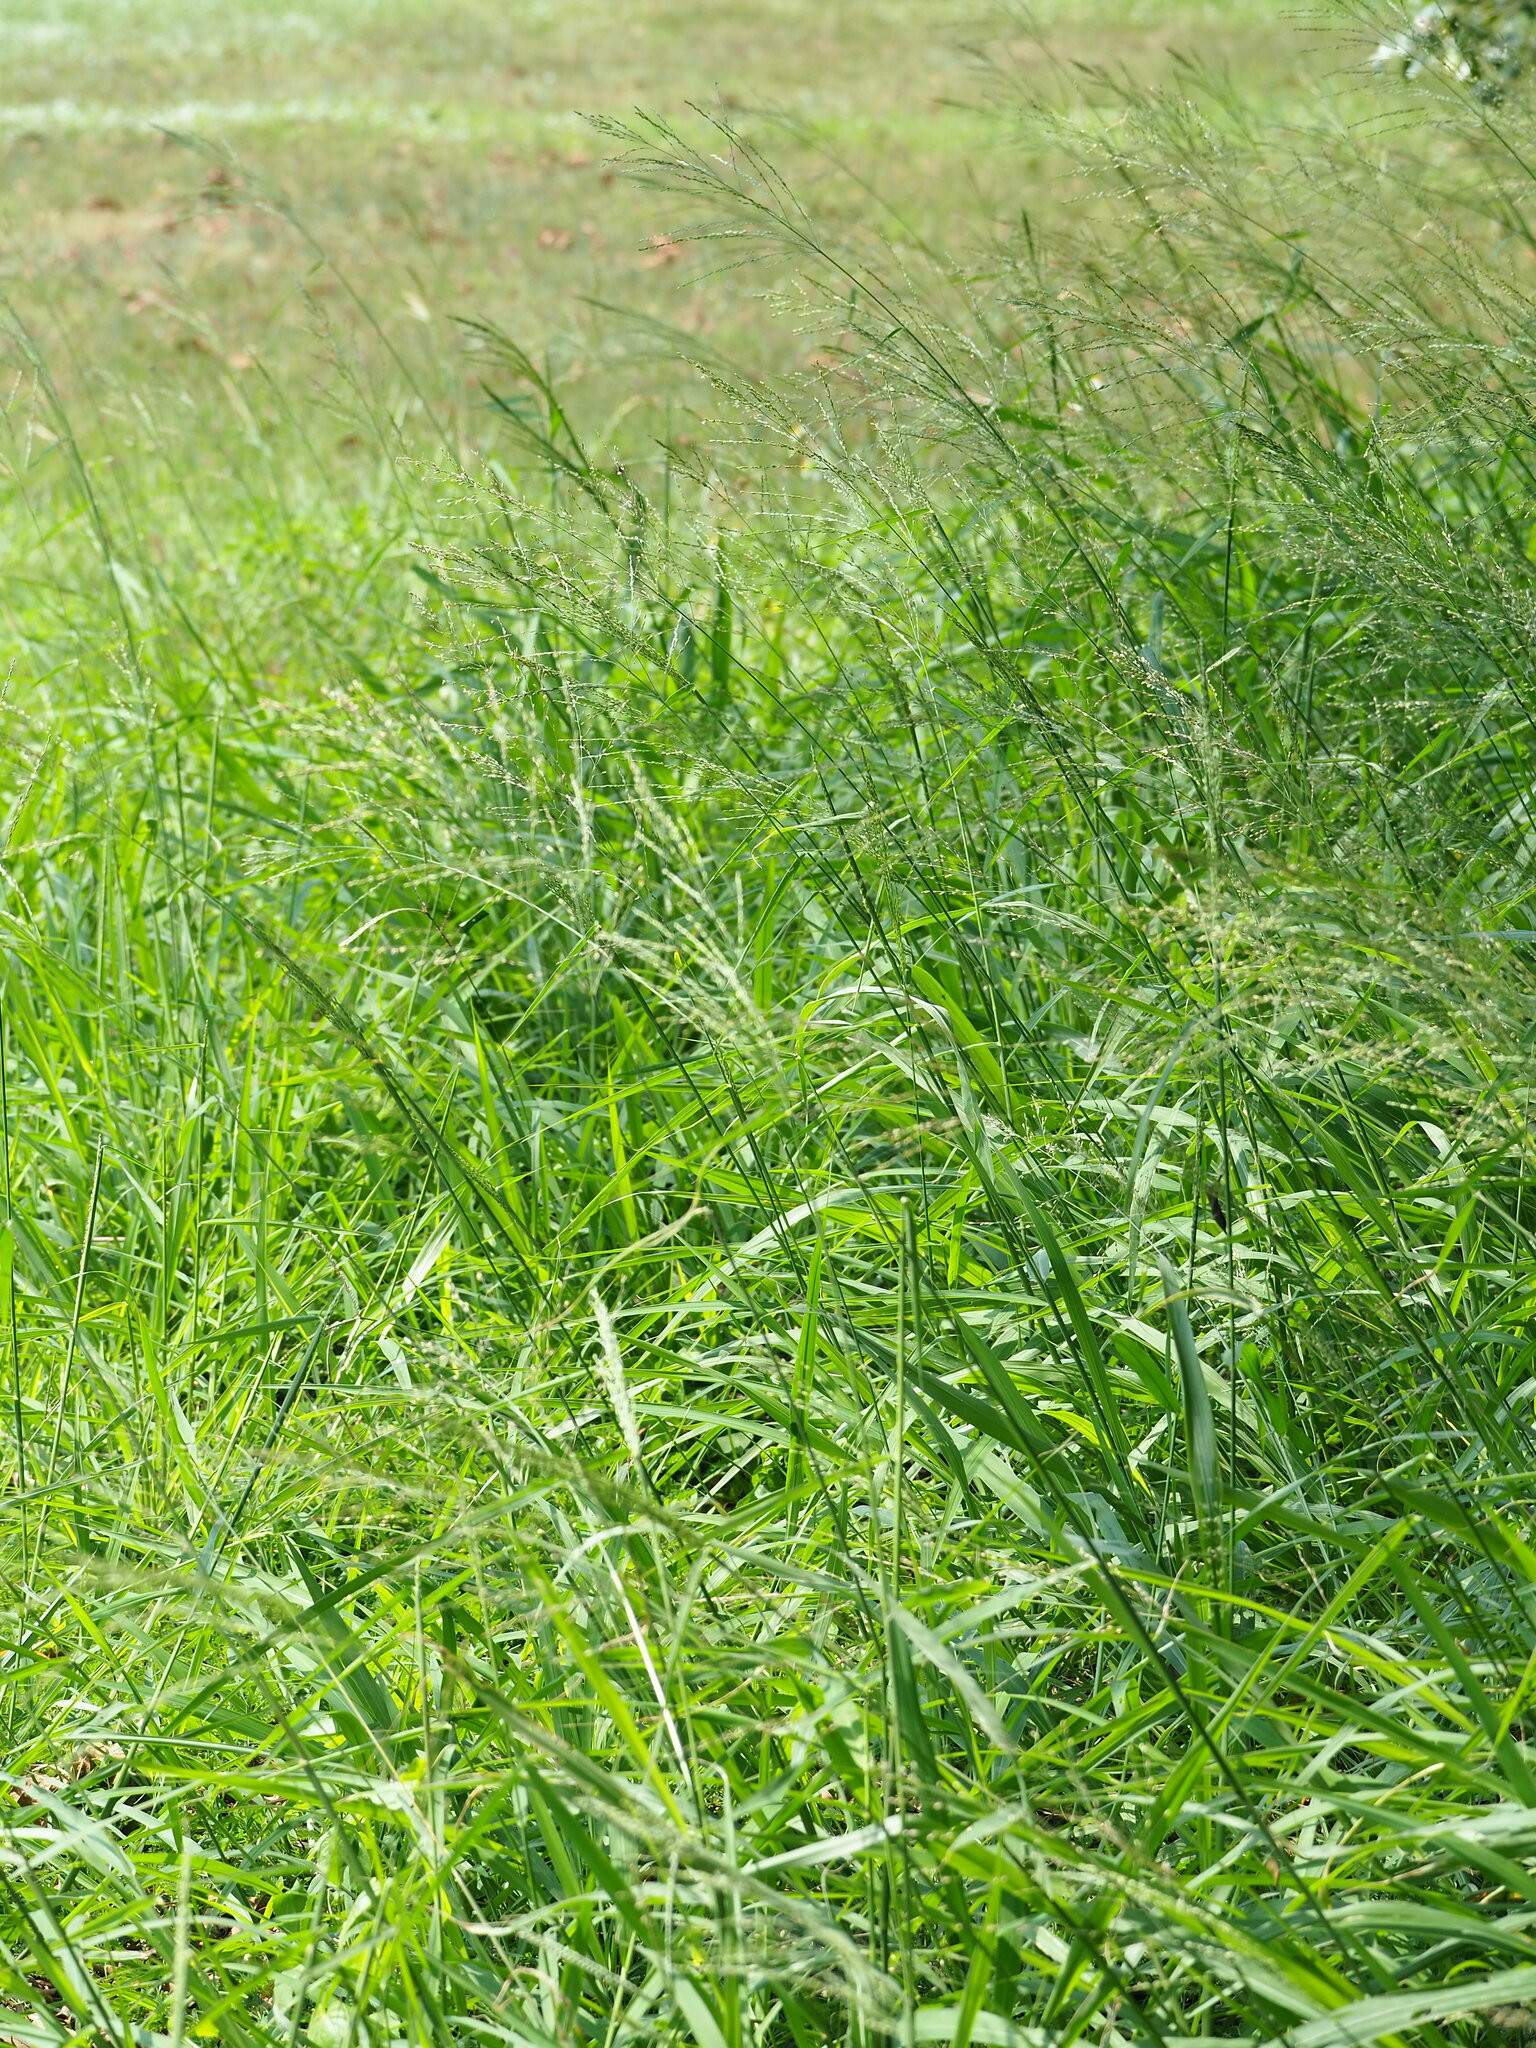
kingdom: Plantae
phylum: Tracheophyta
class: Liliopsida
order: Poales
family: Poaceae
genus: Megathyrsus
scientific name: Megathyrsus maximus
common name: Guineagrass
